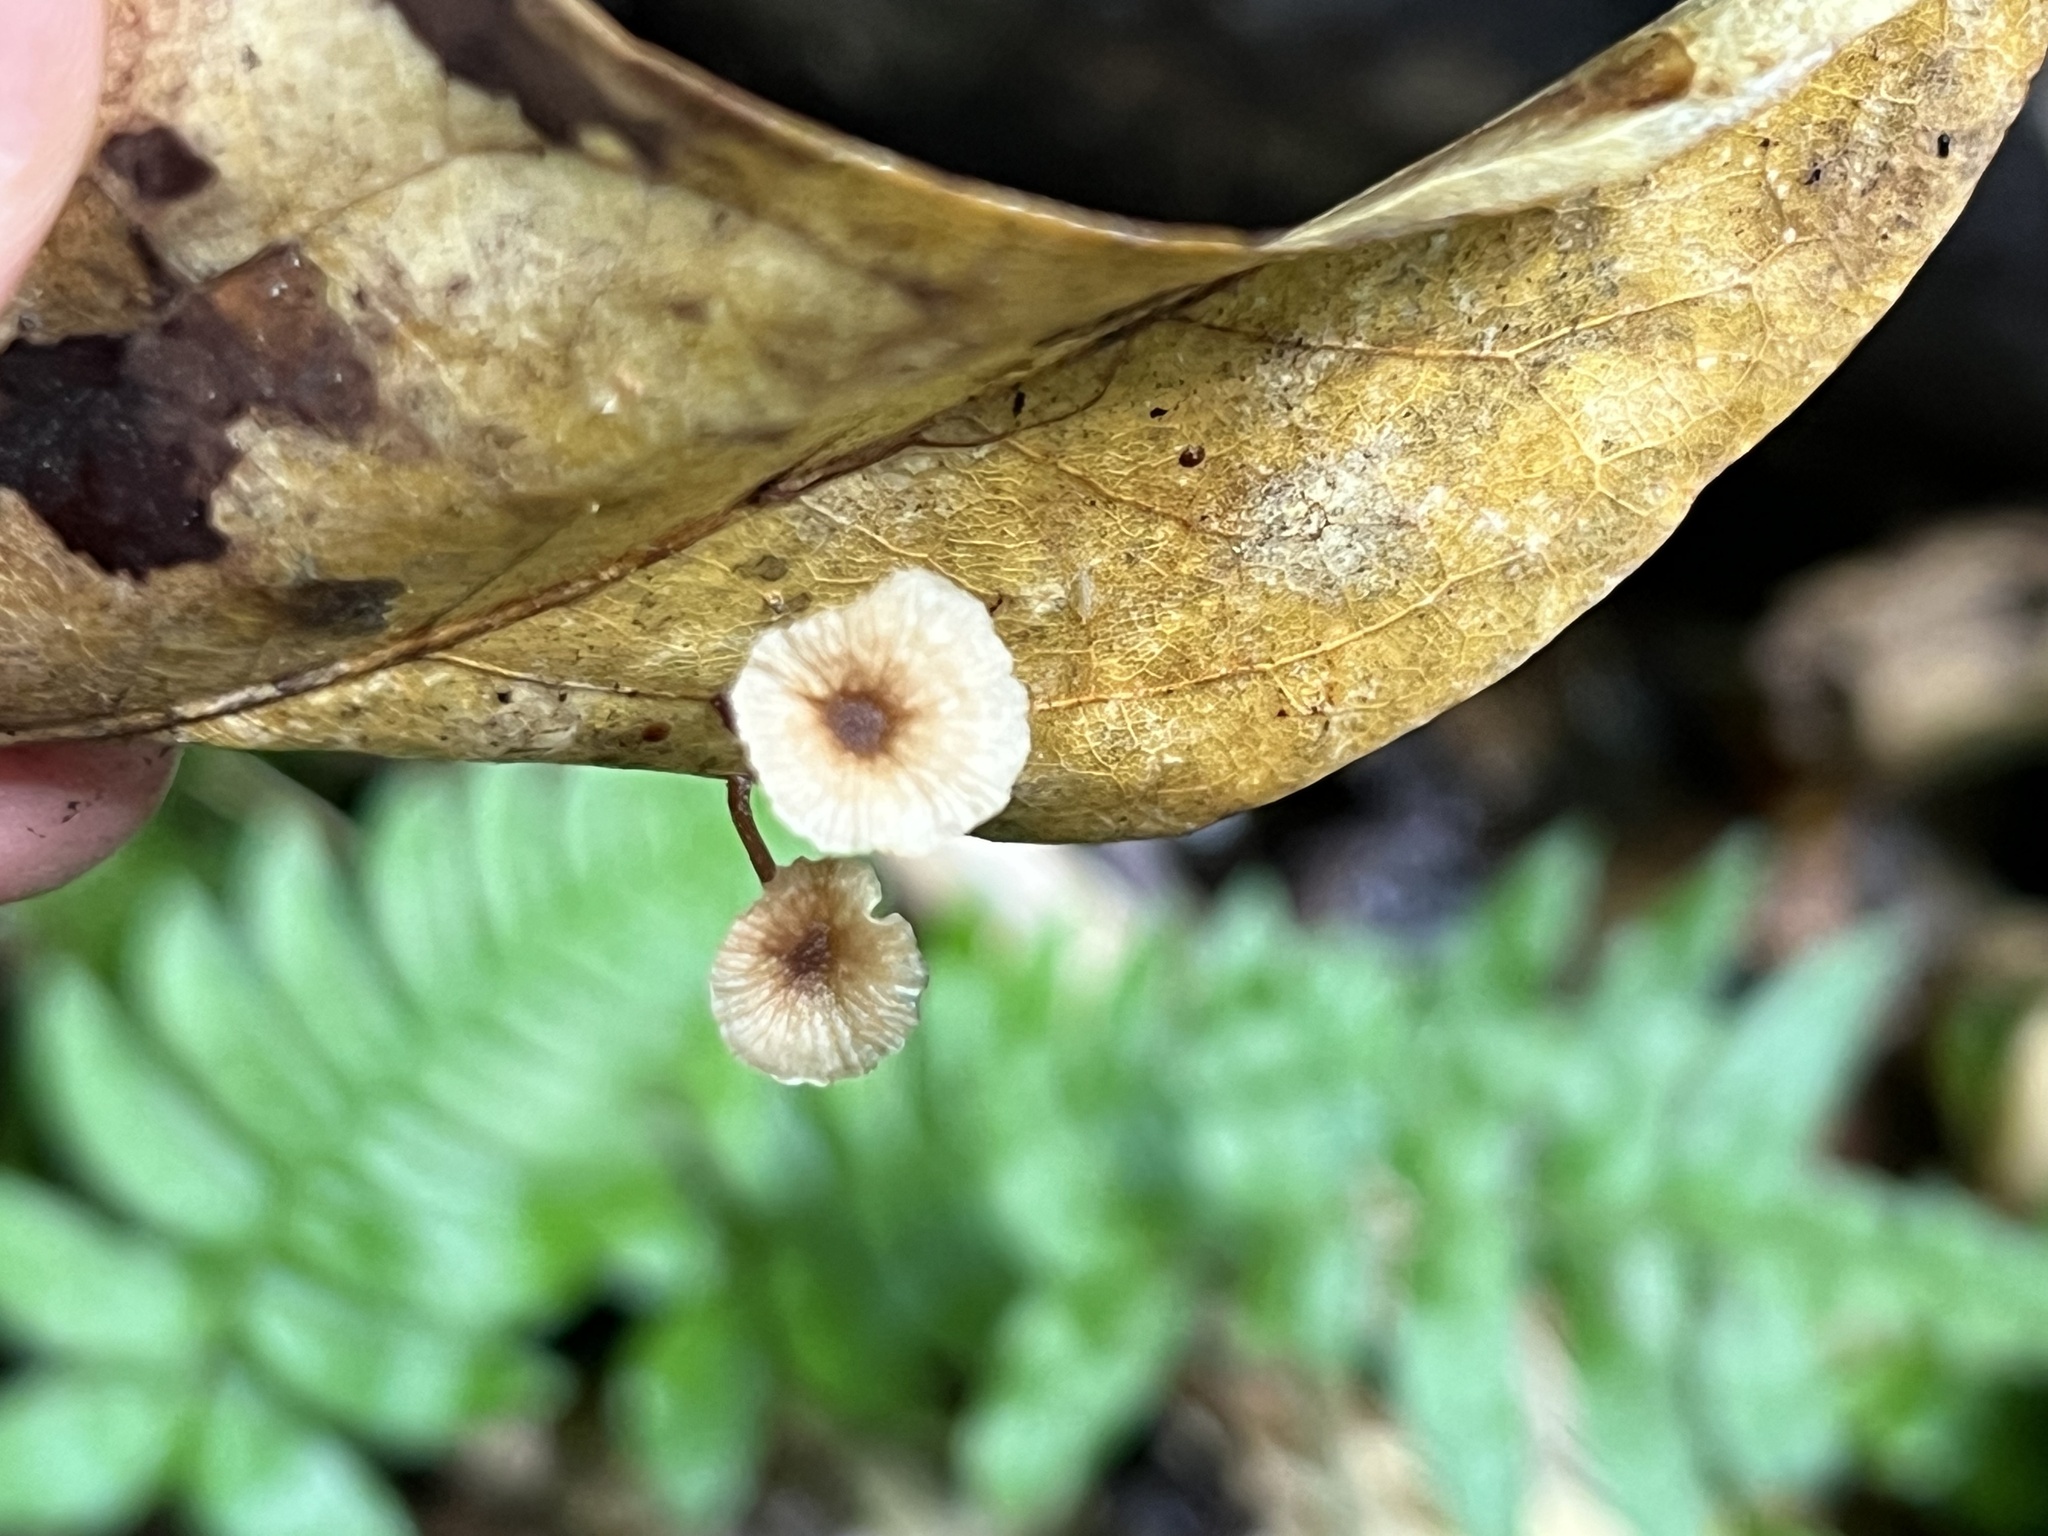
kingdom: Fungi
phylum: Basidiomycota
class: Agaricomycetes
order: Agaricales
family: Omphalotaceae
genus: Gymnopus
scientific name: Gymnopus johnstonii
